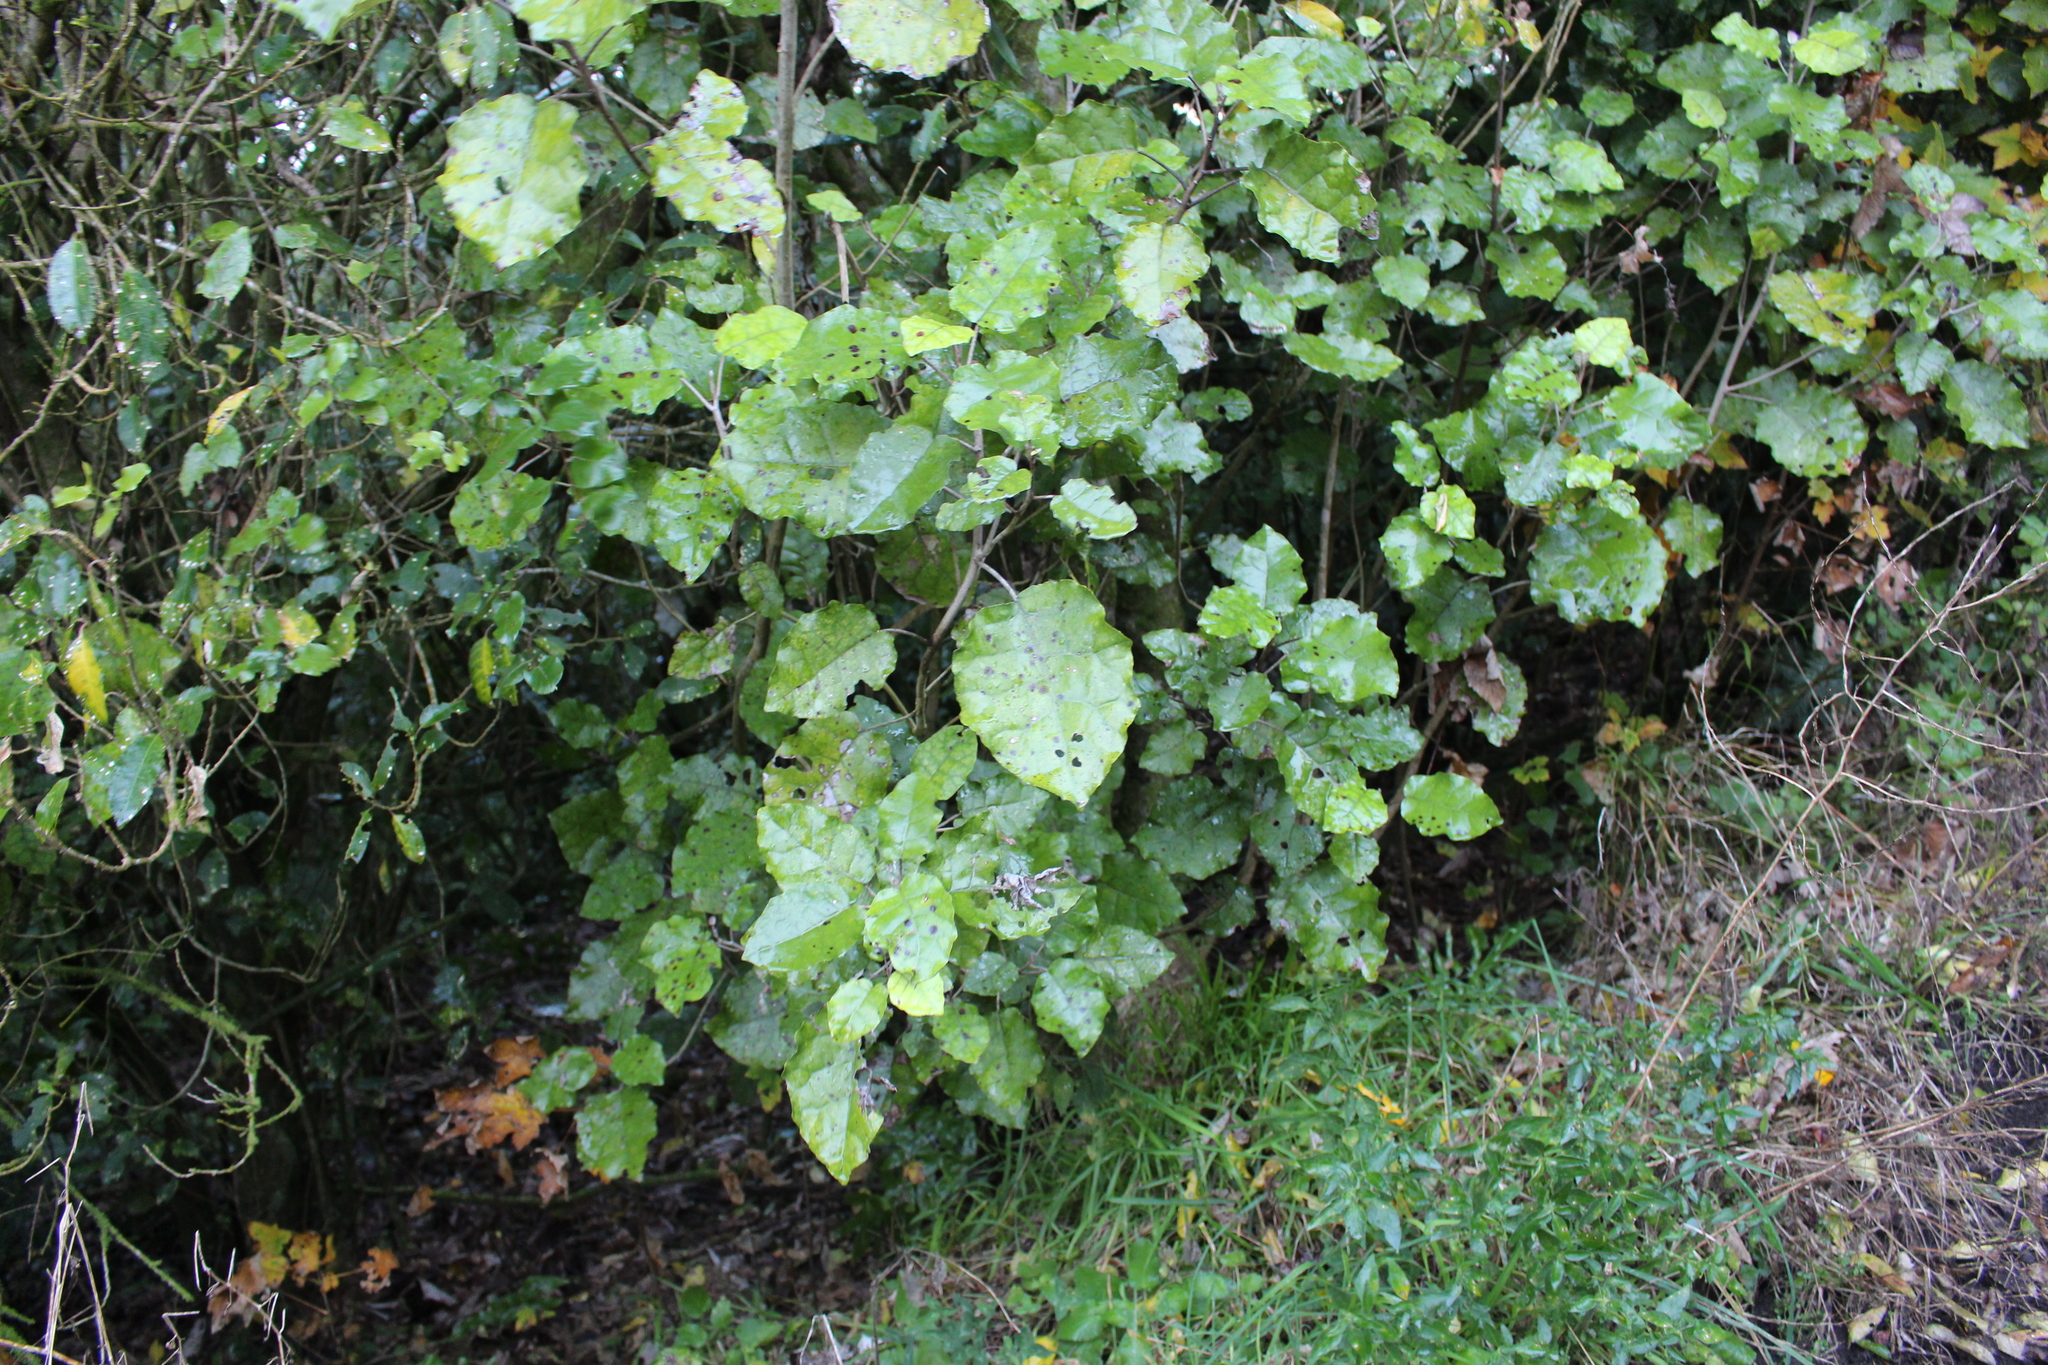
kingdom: Plantae
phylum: Tracheophyta
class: Magnoliopsida
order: Asterales
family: Asteraceae
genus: Brachyglottis
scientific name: Brachyglottis repanda
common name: Hedge ragwort
